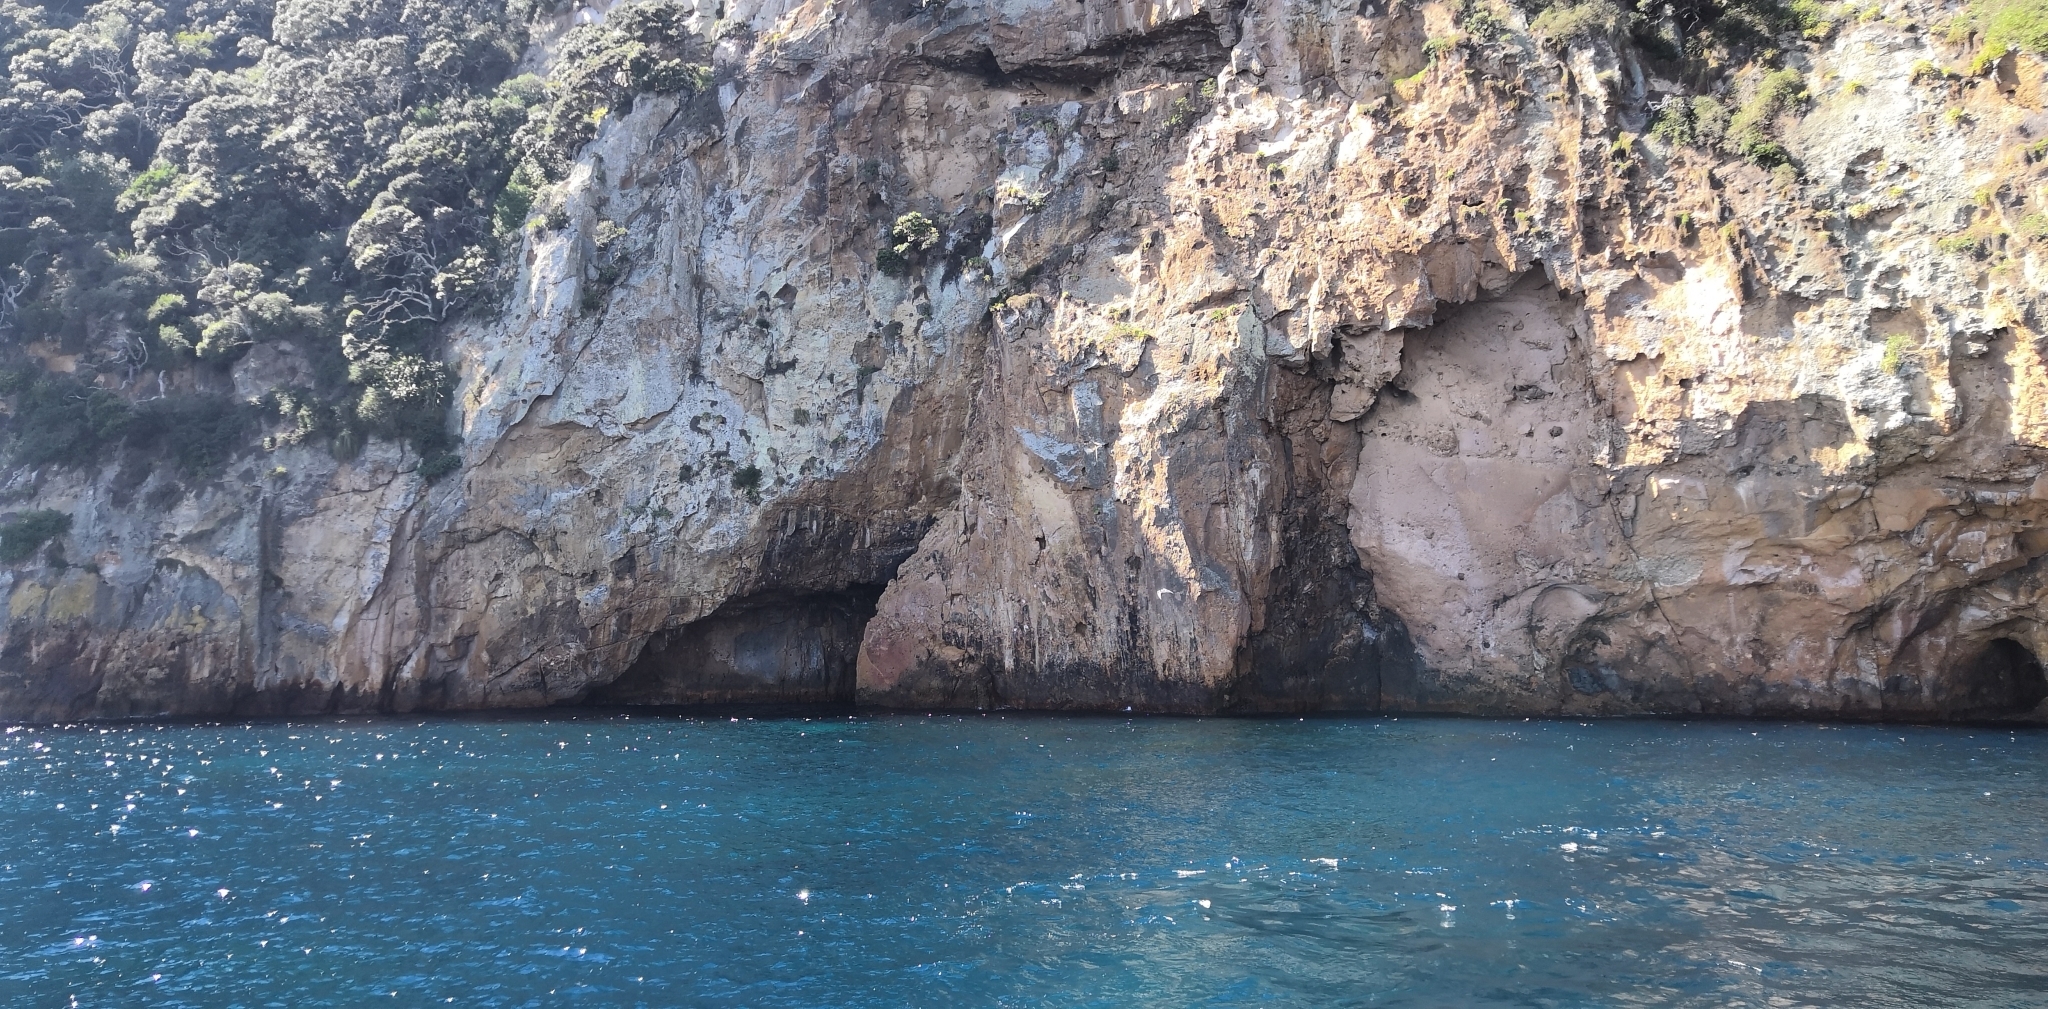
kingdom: Animalia
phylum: Chordata
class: Aves
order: Charadriiformes
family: Laridae
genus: Sterna
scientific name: Sterna striata
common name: White-fronted tern
